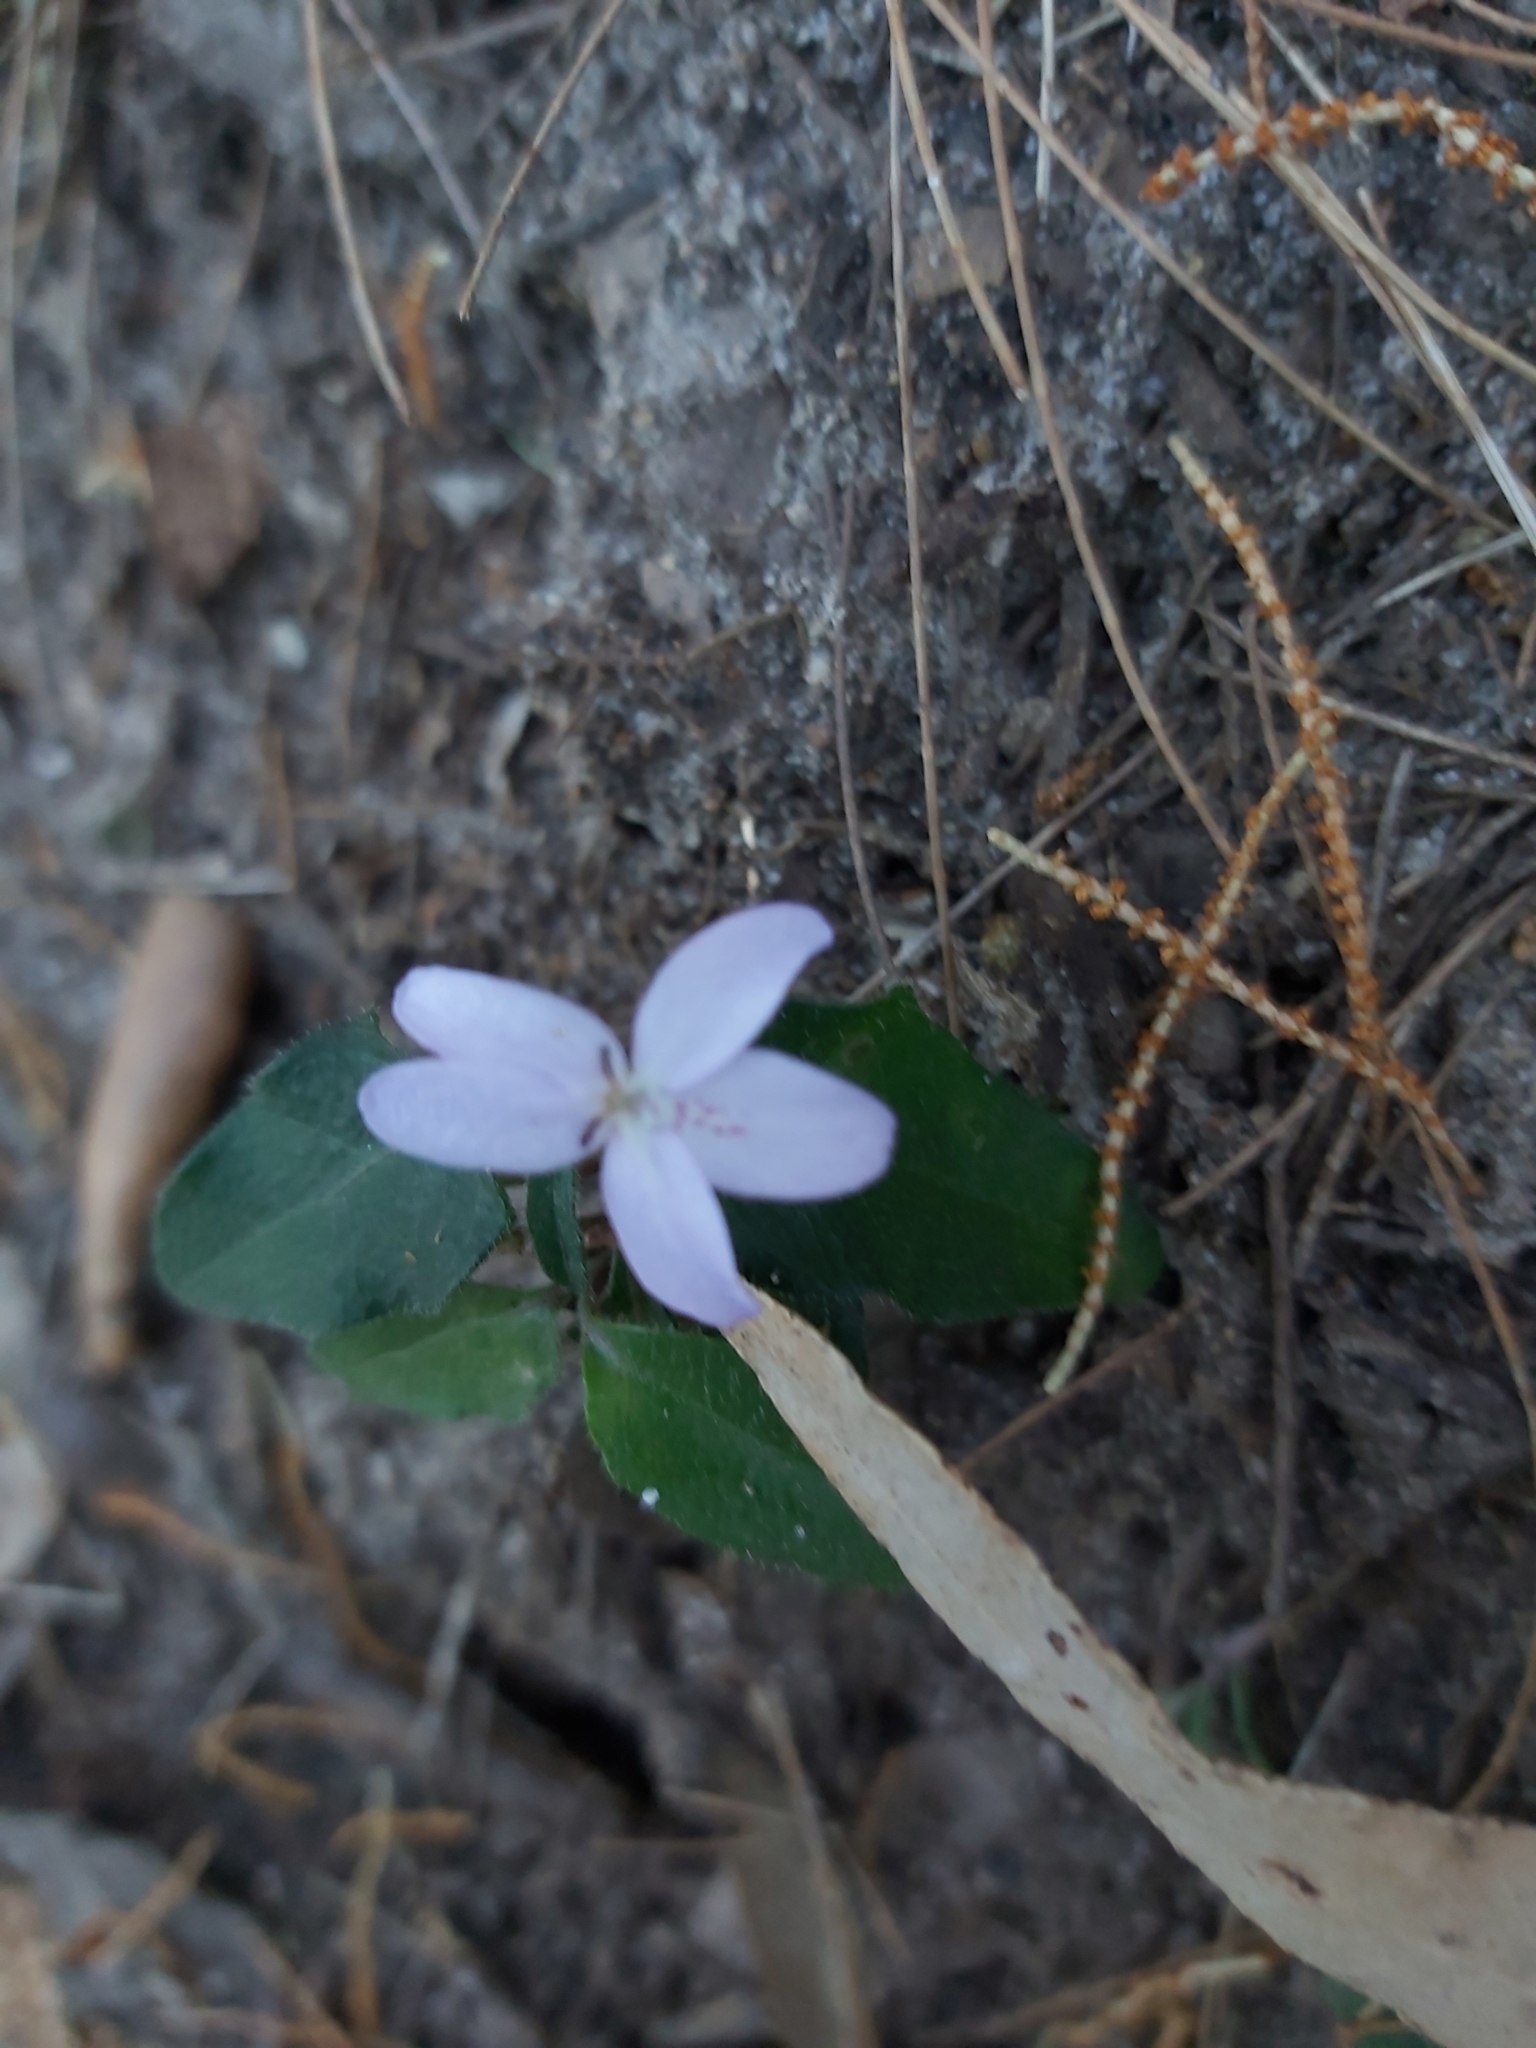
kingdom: Plantae
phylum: Tracheophyta
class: Magnoliopsida
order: Lamiales
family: Acanthaceae
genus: Pseuderanthemum
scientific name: Pseuderanthemum variabile
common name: Night and afternoon
